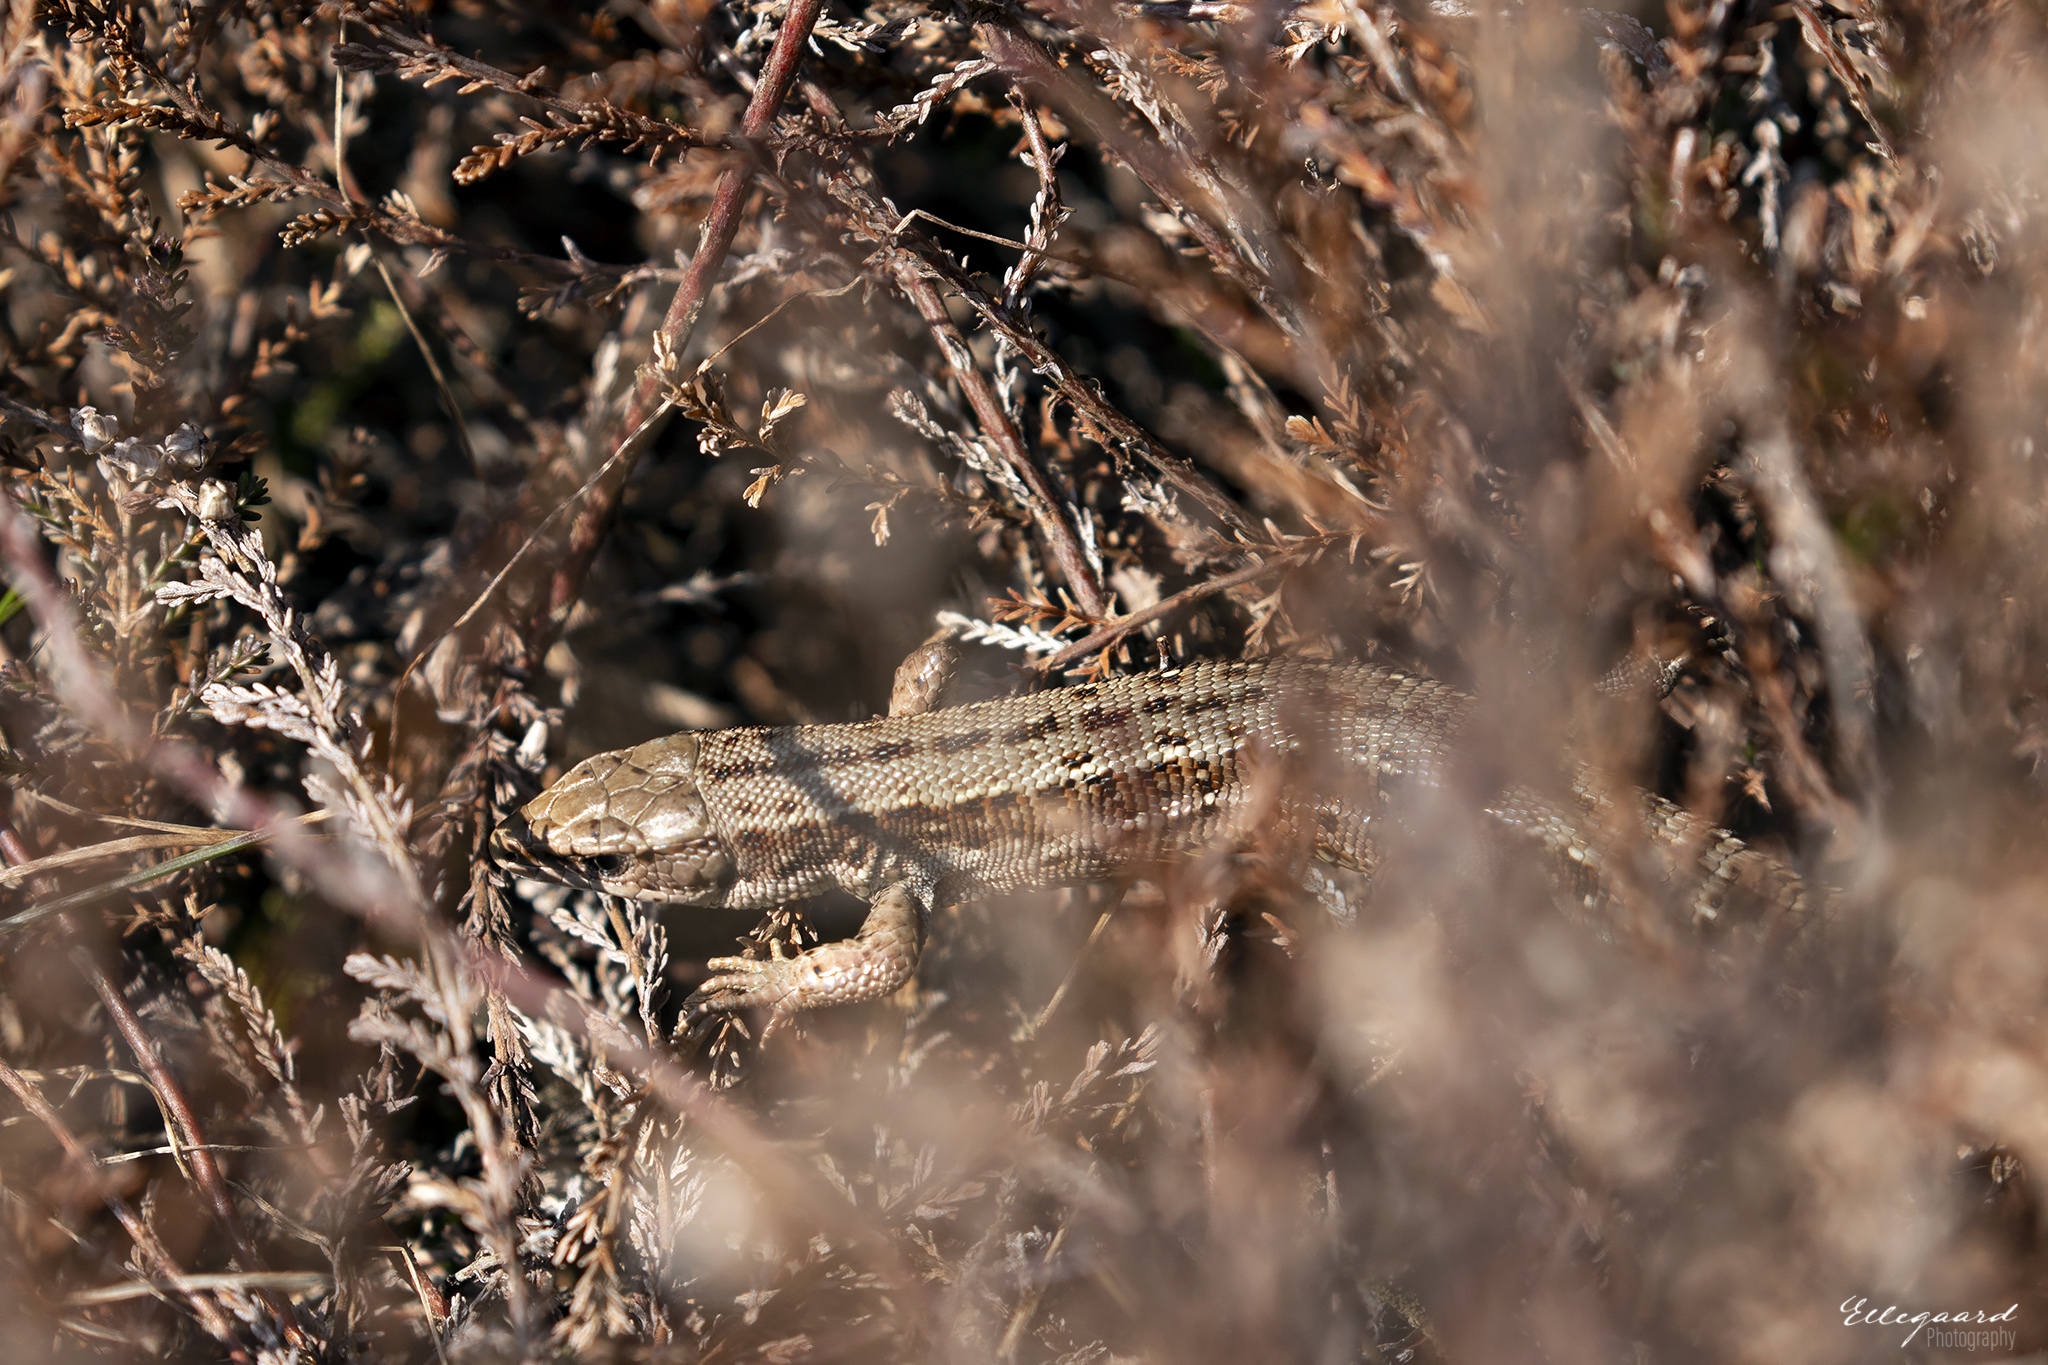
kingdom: Animalia
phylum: Chordata
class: Squamata
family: Lacertidae
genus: Zootoca
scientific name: Zootoca vivipara
